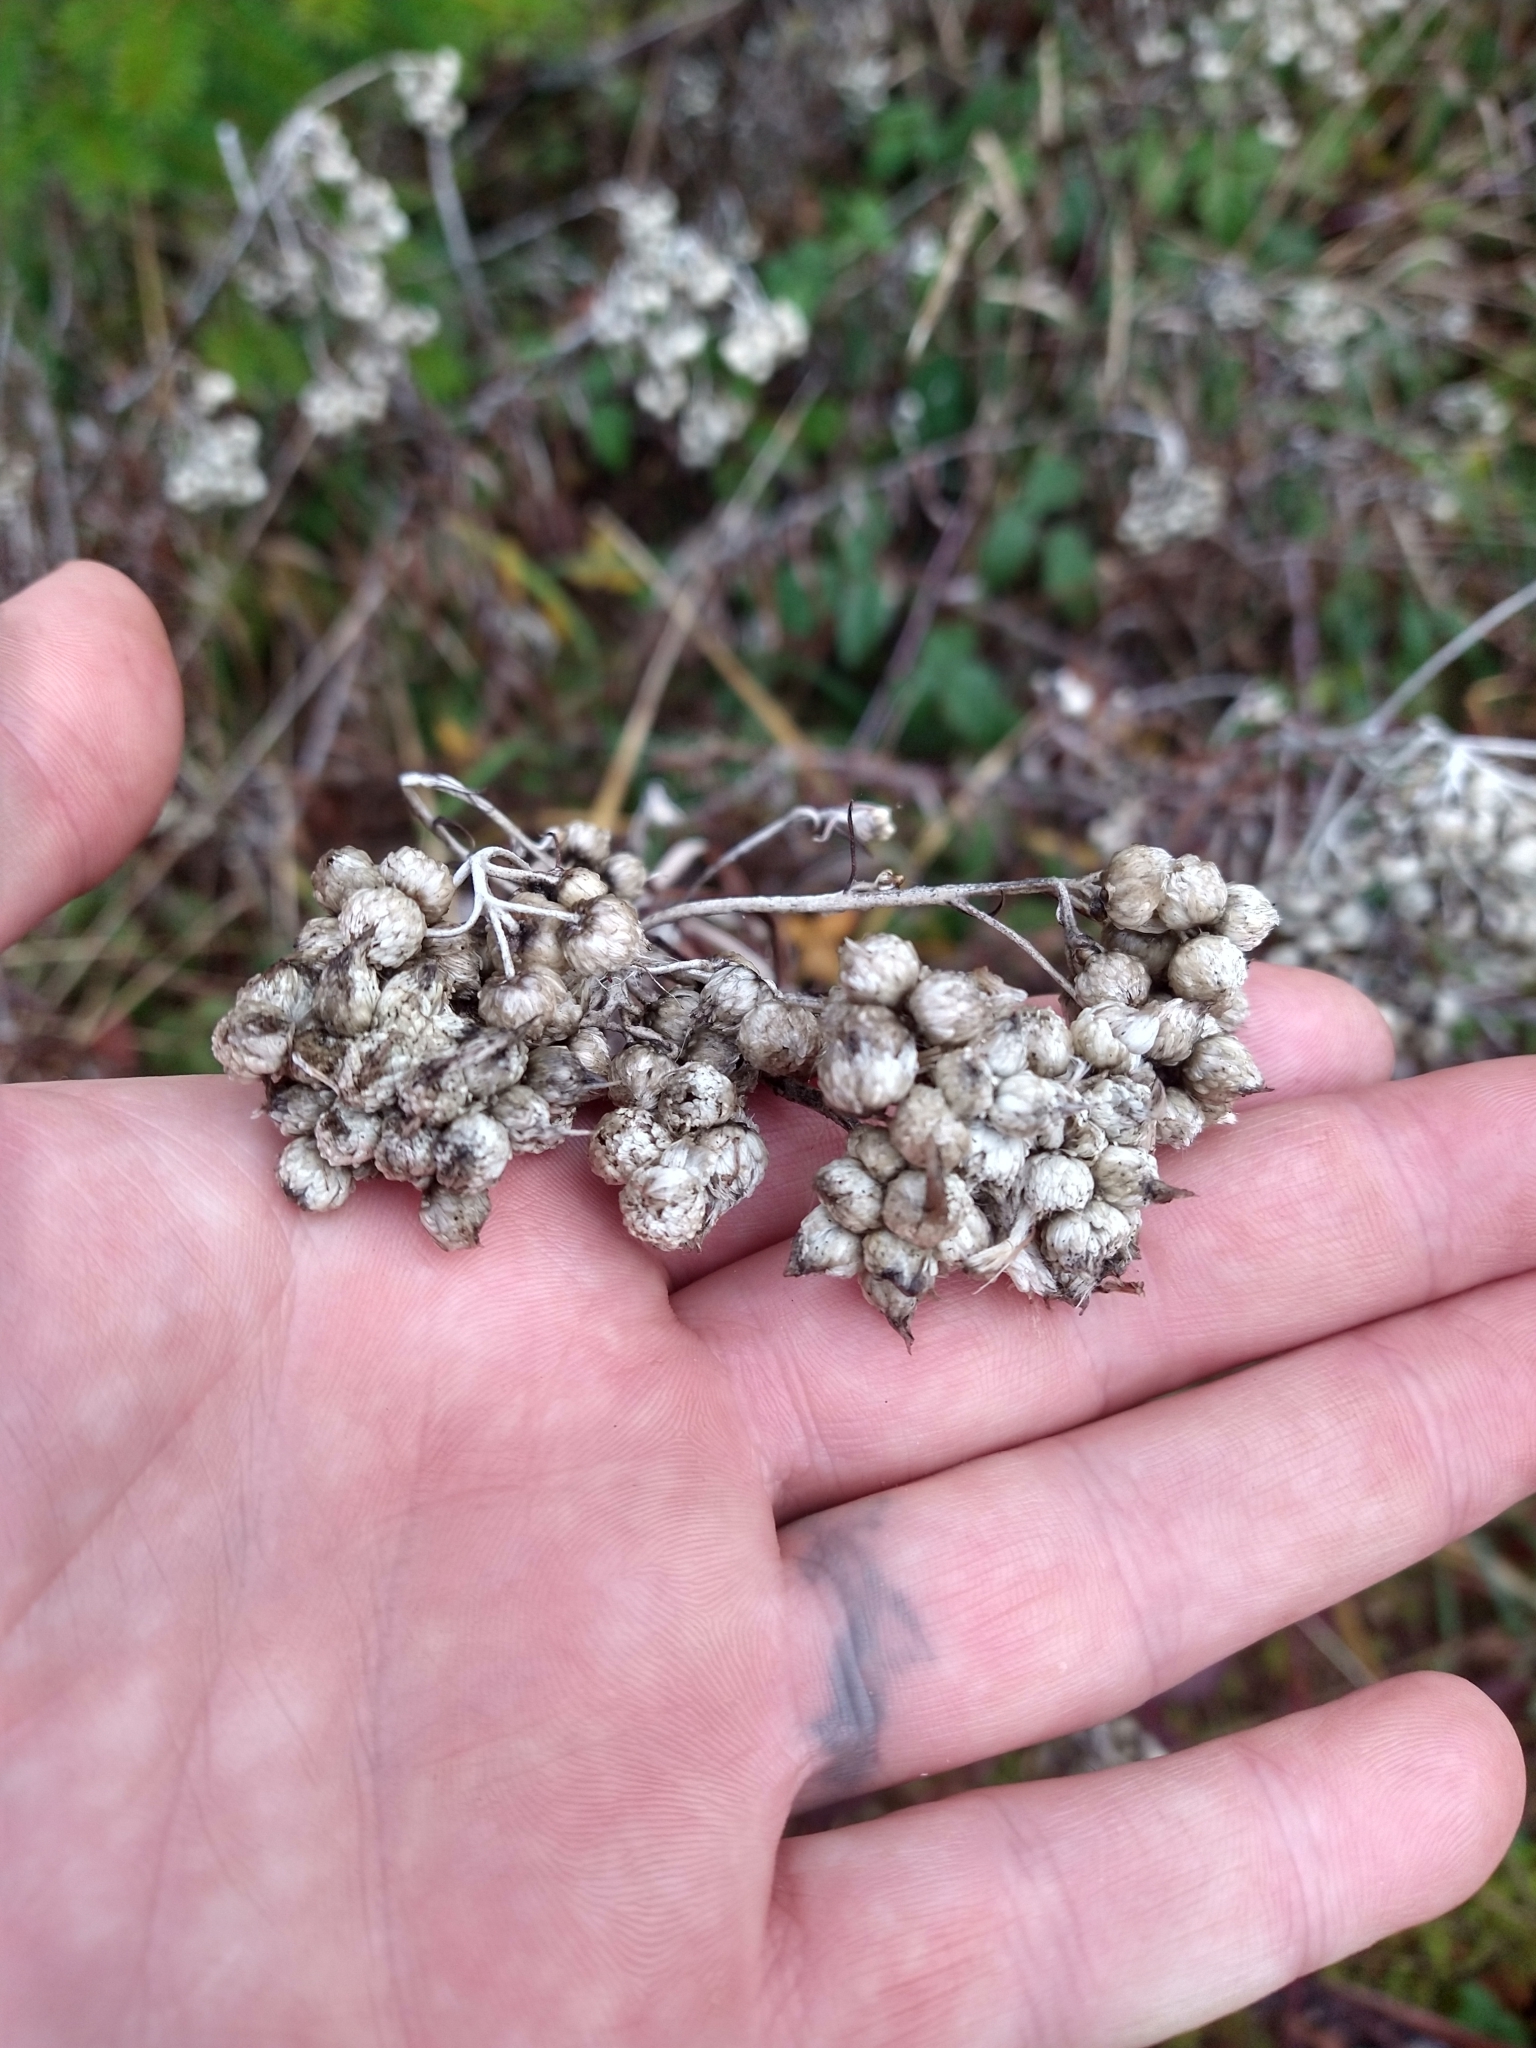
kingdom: Plantae
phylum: Tracheophyta
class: Magnoliopsida
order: Asterales
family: Asteraceae
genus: Anaphalis
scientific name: Anaphalis margaritacea
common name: Pearly everlasting
